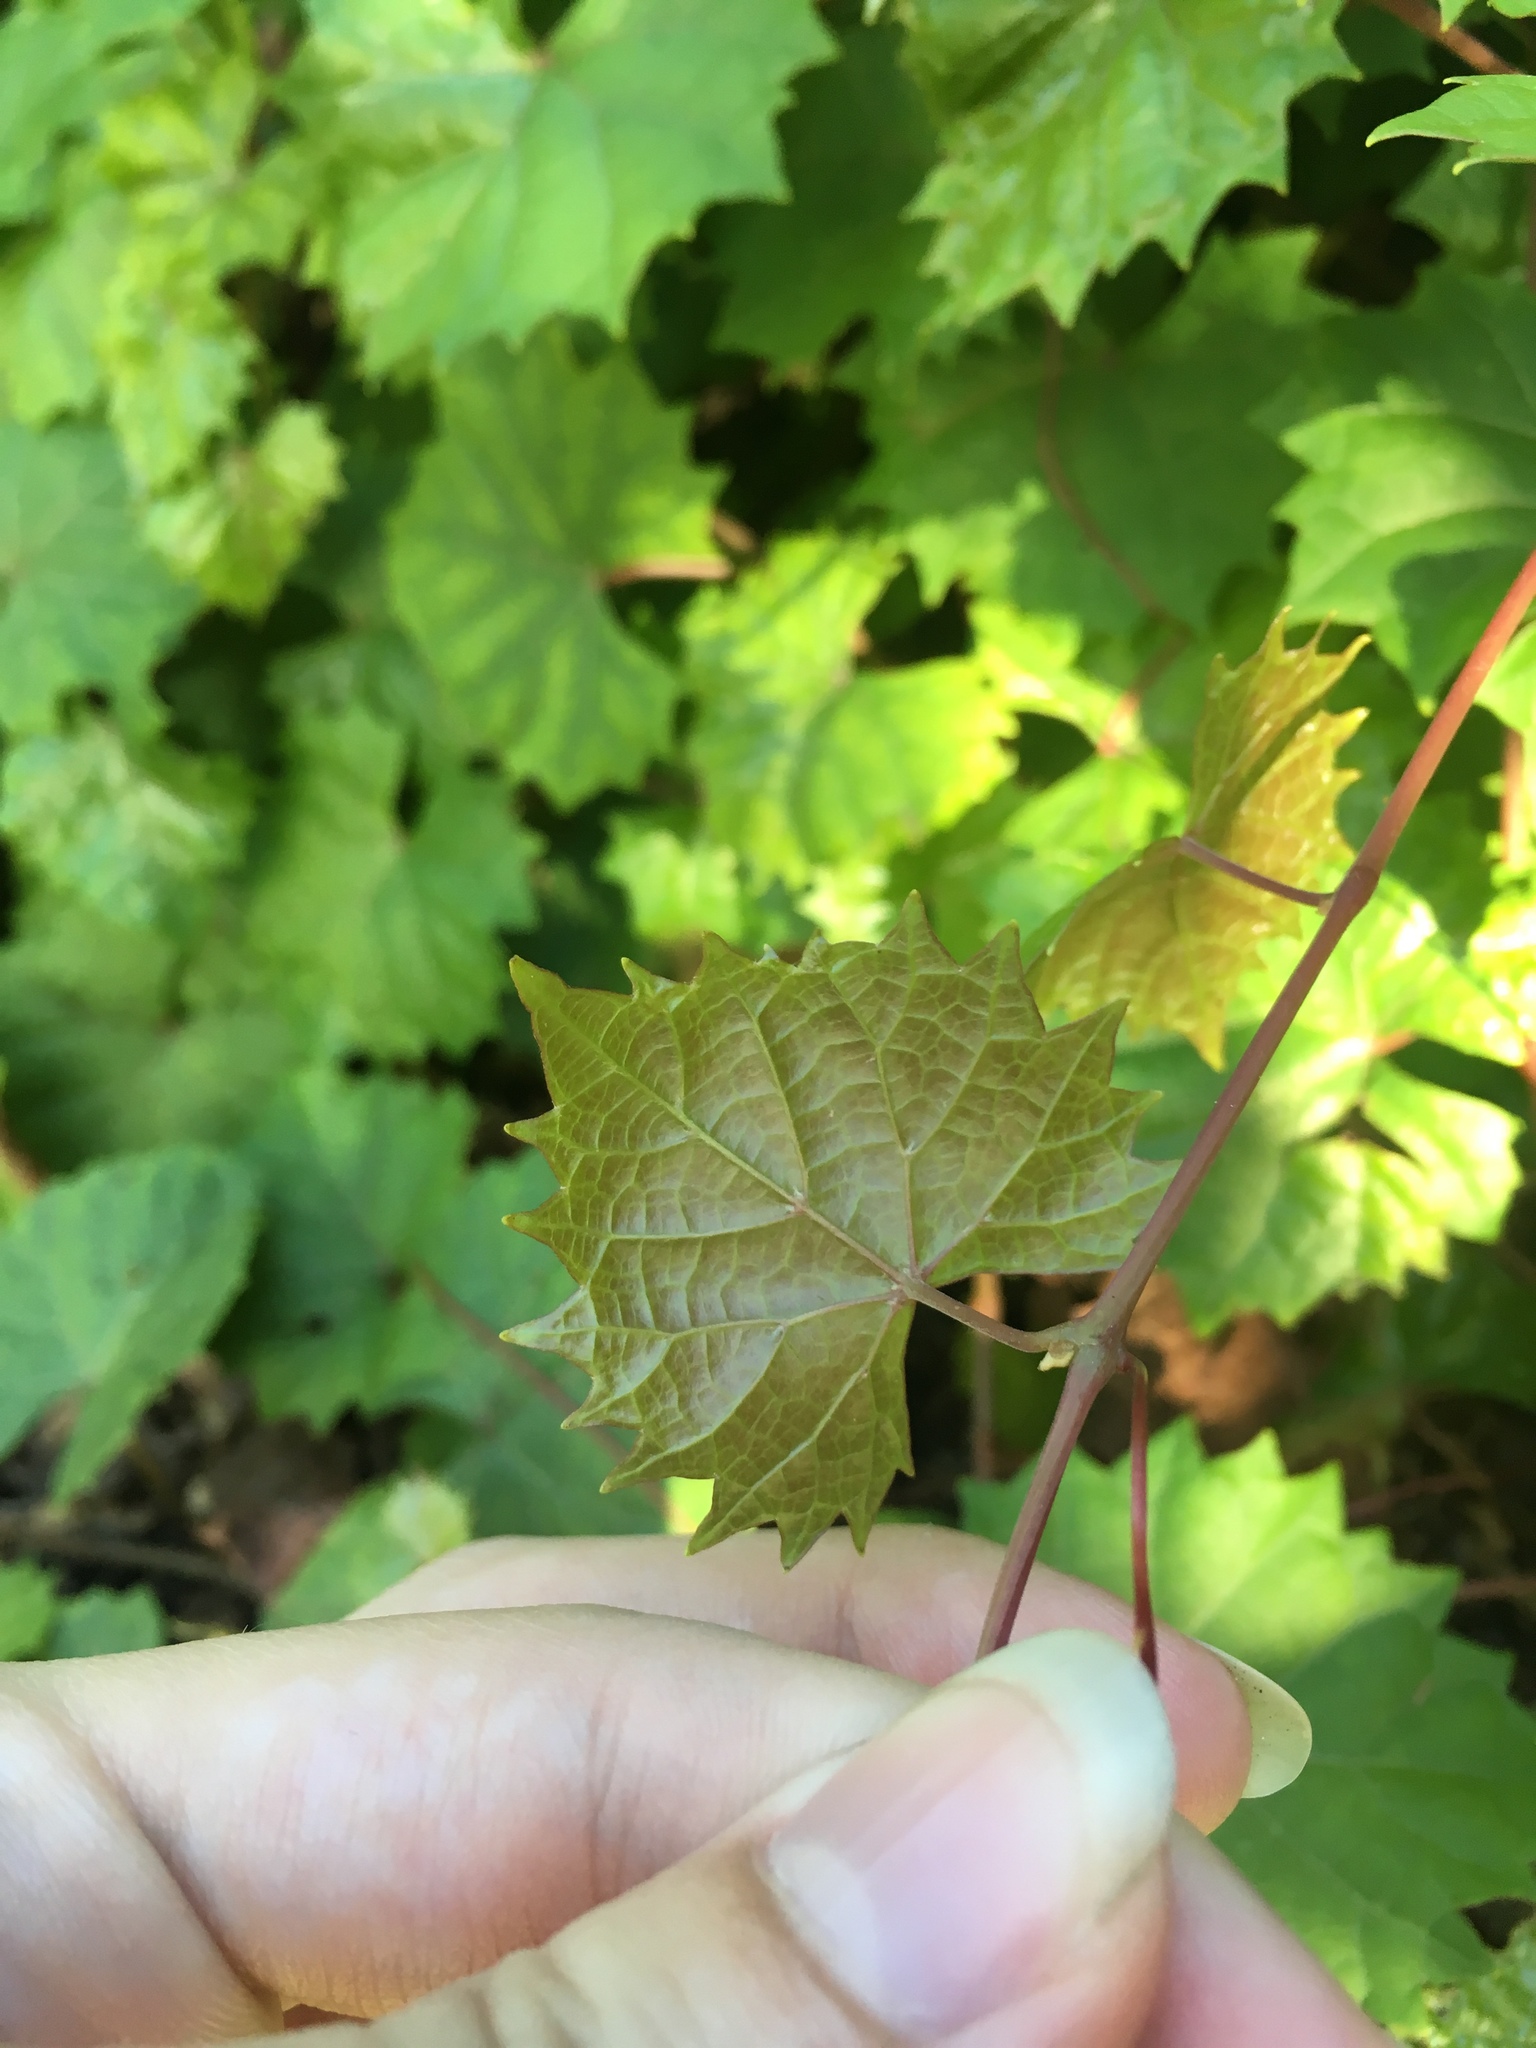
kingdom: Plantae
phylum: Tracheophyta
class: Magnoliopsida
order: Vitales
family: Vitaceae
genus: Vitis
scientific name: Vitis rotundifolia
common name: Muscadine grape
